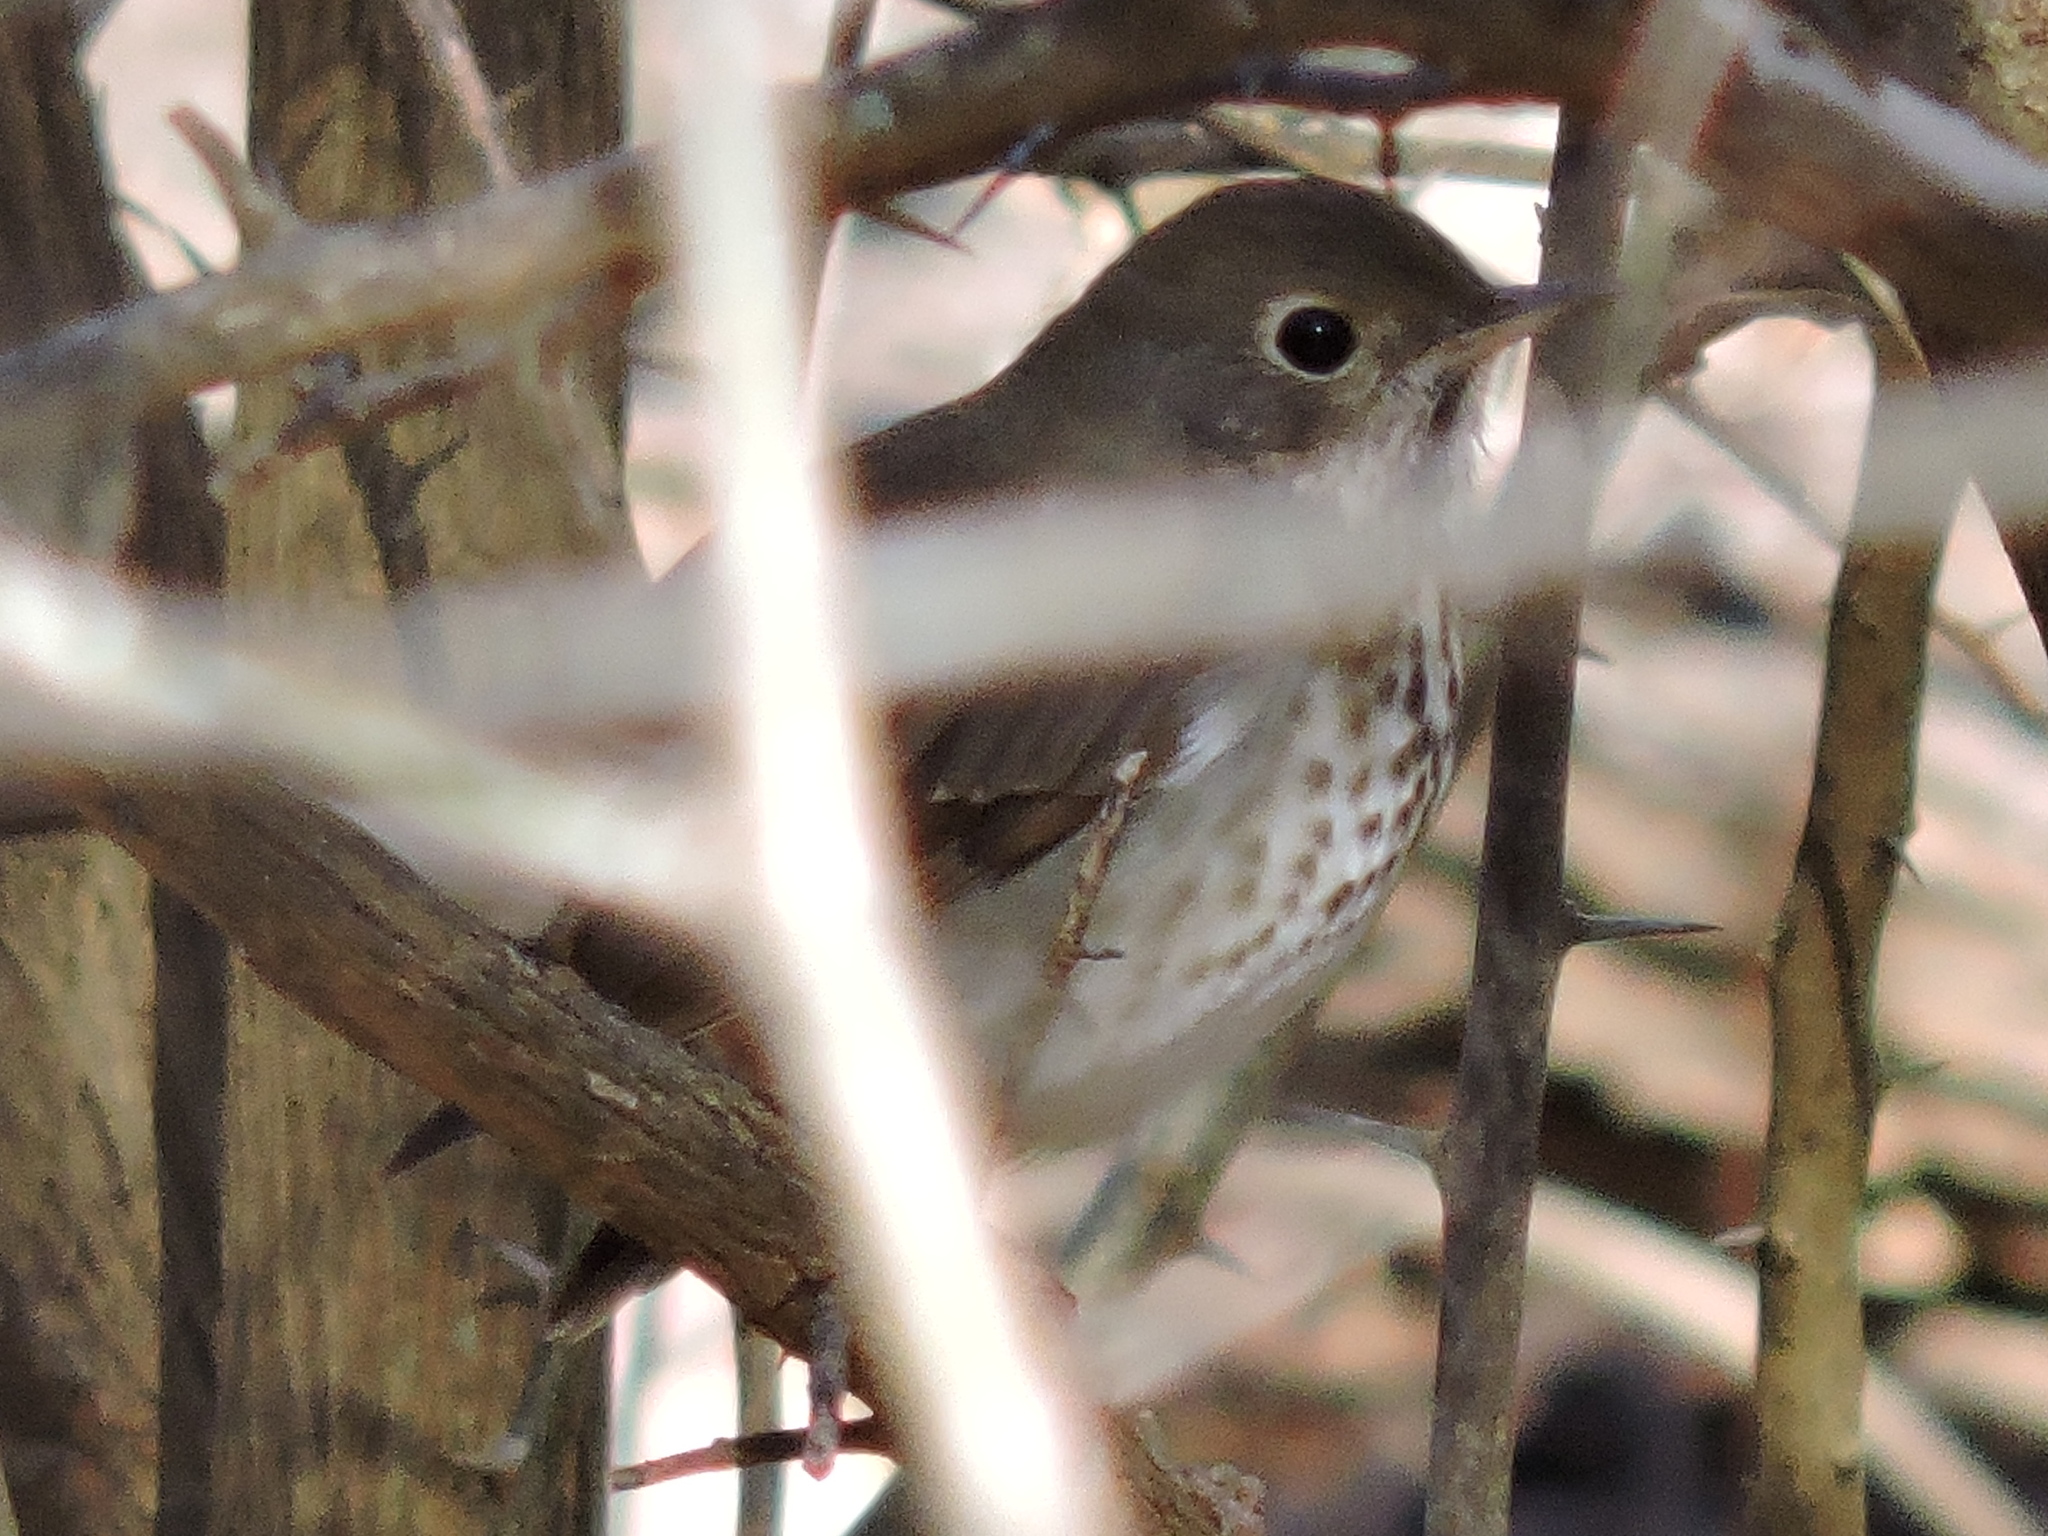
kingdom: Animalia
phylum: Chordata
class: Aves
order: Passeriformes
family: Turdidae
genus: Catharus
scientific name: Catharus guttatus
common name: Hermit thrush
